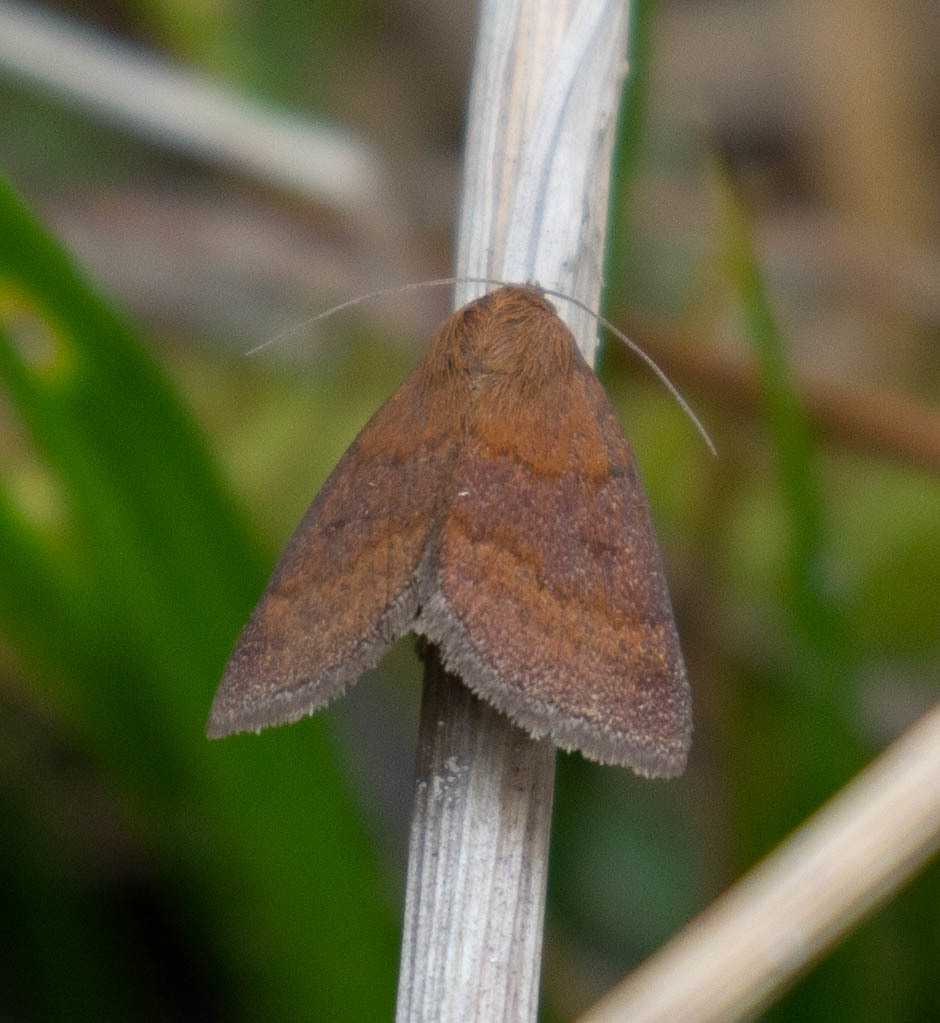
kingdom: Animalia
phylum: Arthropoda
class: Insecta
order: Lepidoptera
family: Erebidae
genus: Argyrostrotis
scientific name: Argyrostrotis deleta
